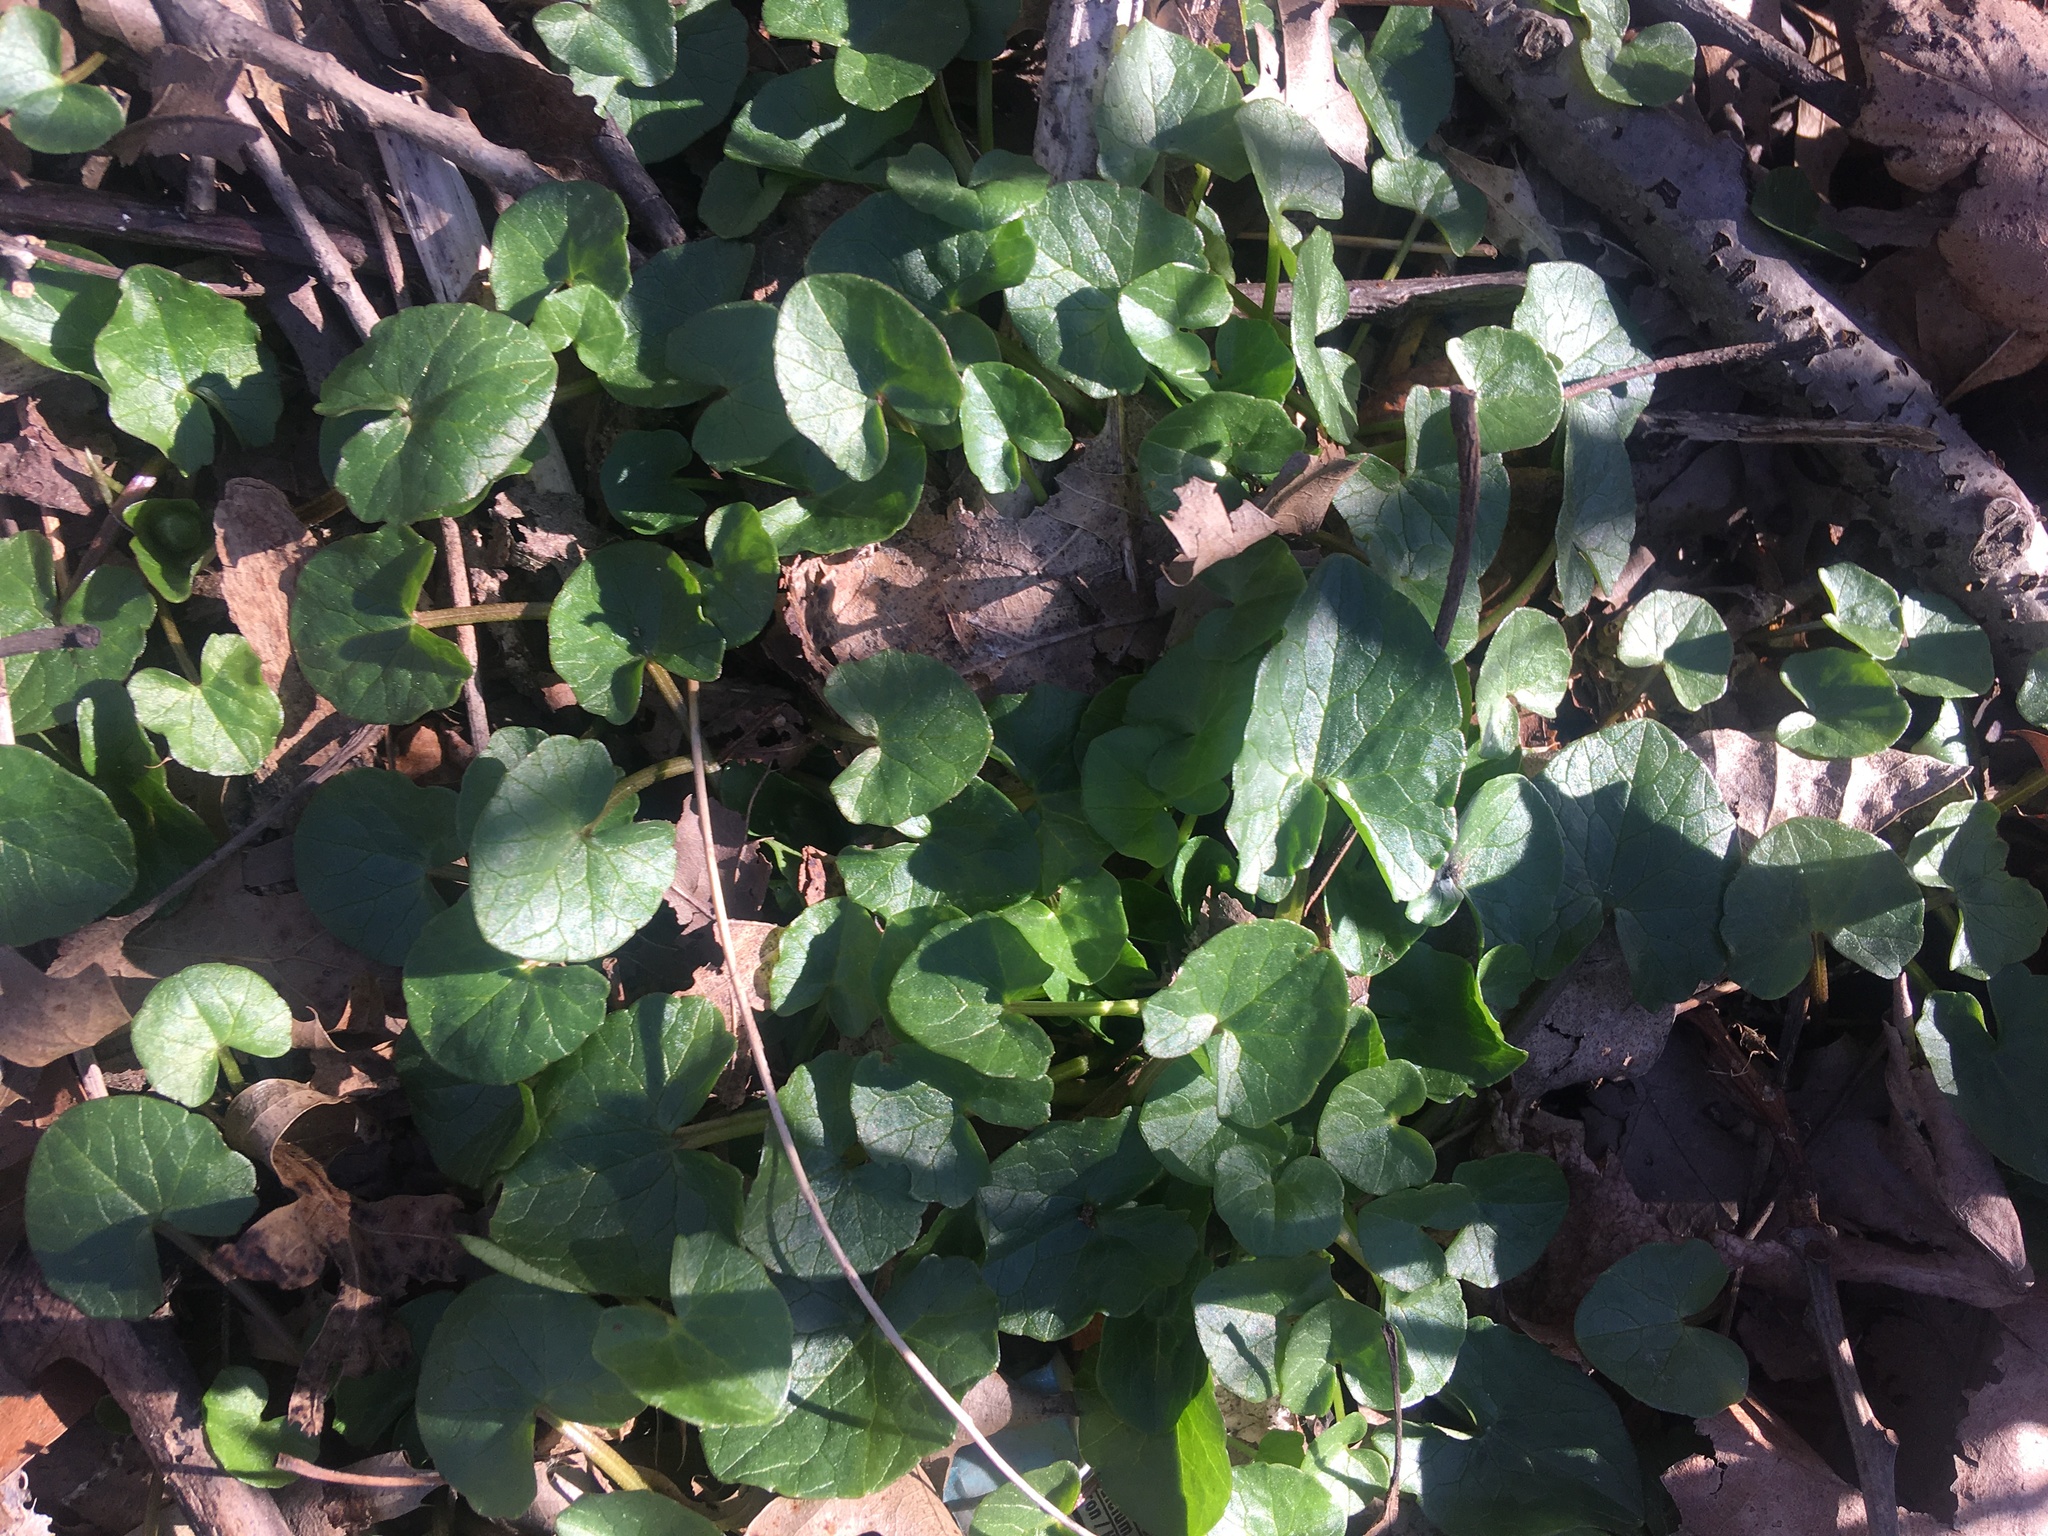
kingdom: Plantae
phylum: Tracheophyta
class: Magnoliopsida
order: Ranunculales
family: Ranunculaceae
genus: Ficaria
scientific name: Ficaria verna
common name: Lesser celandine
